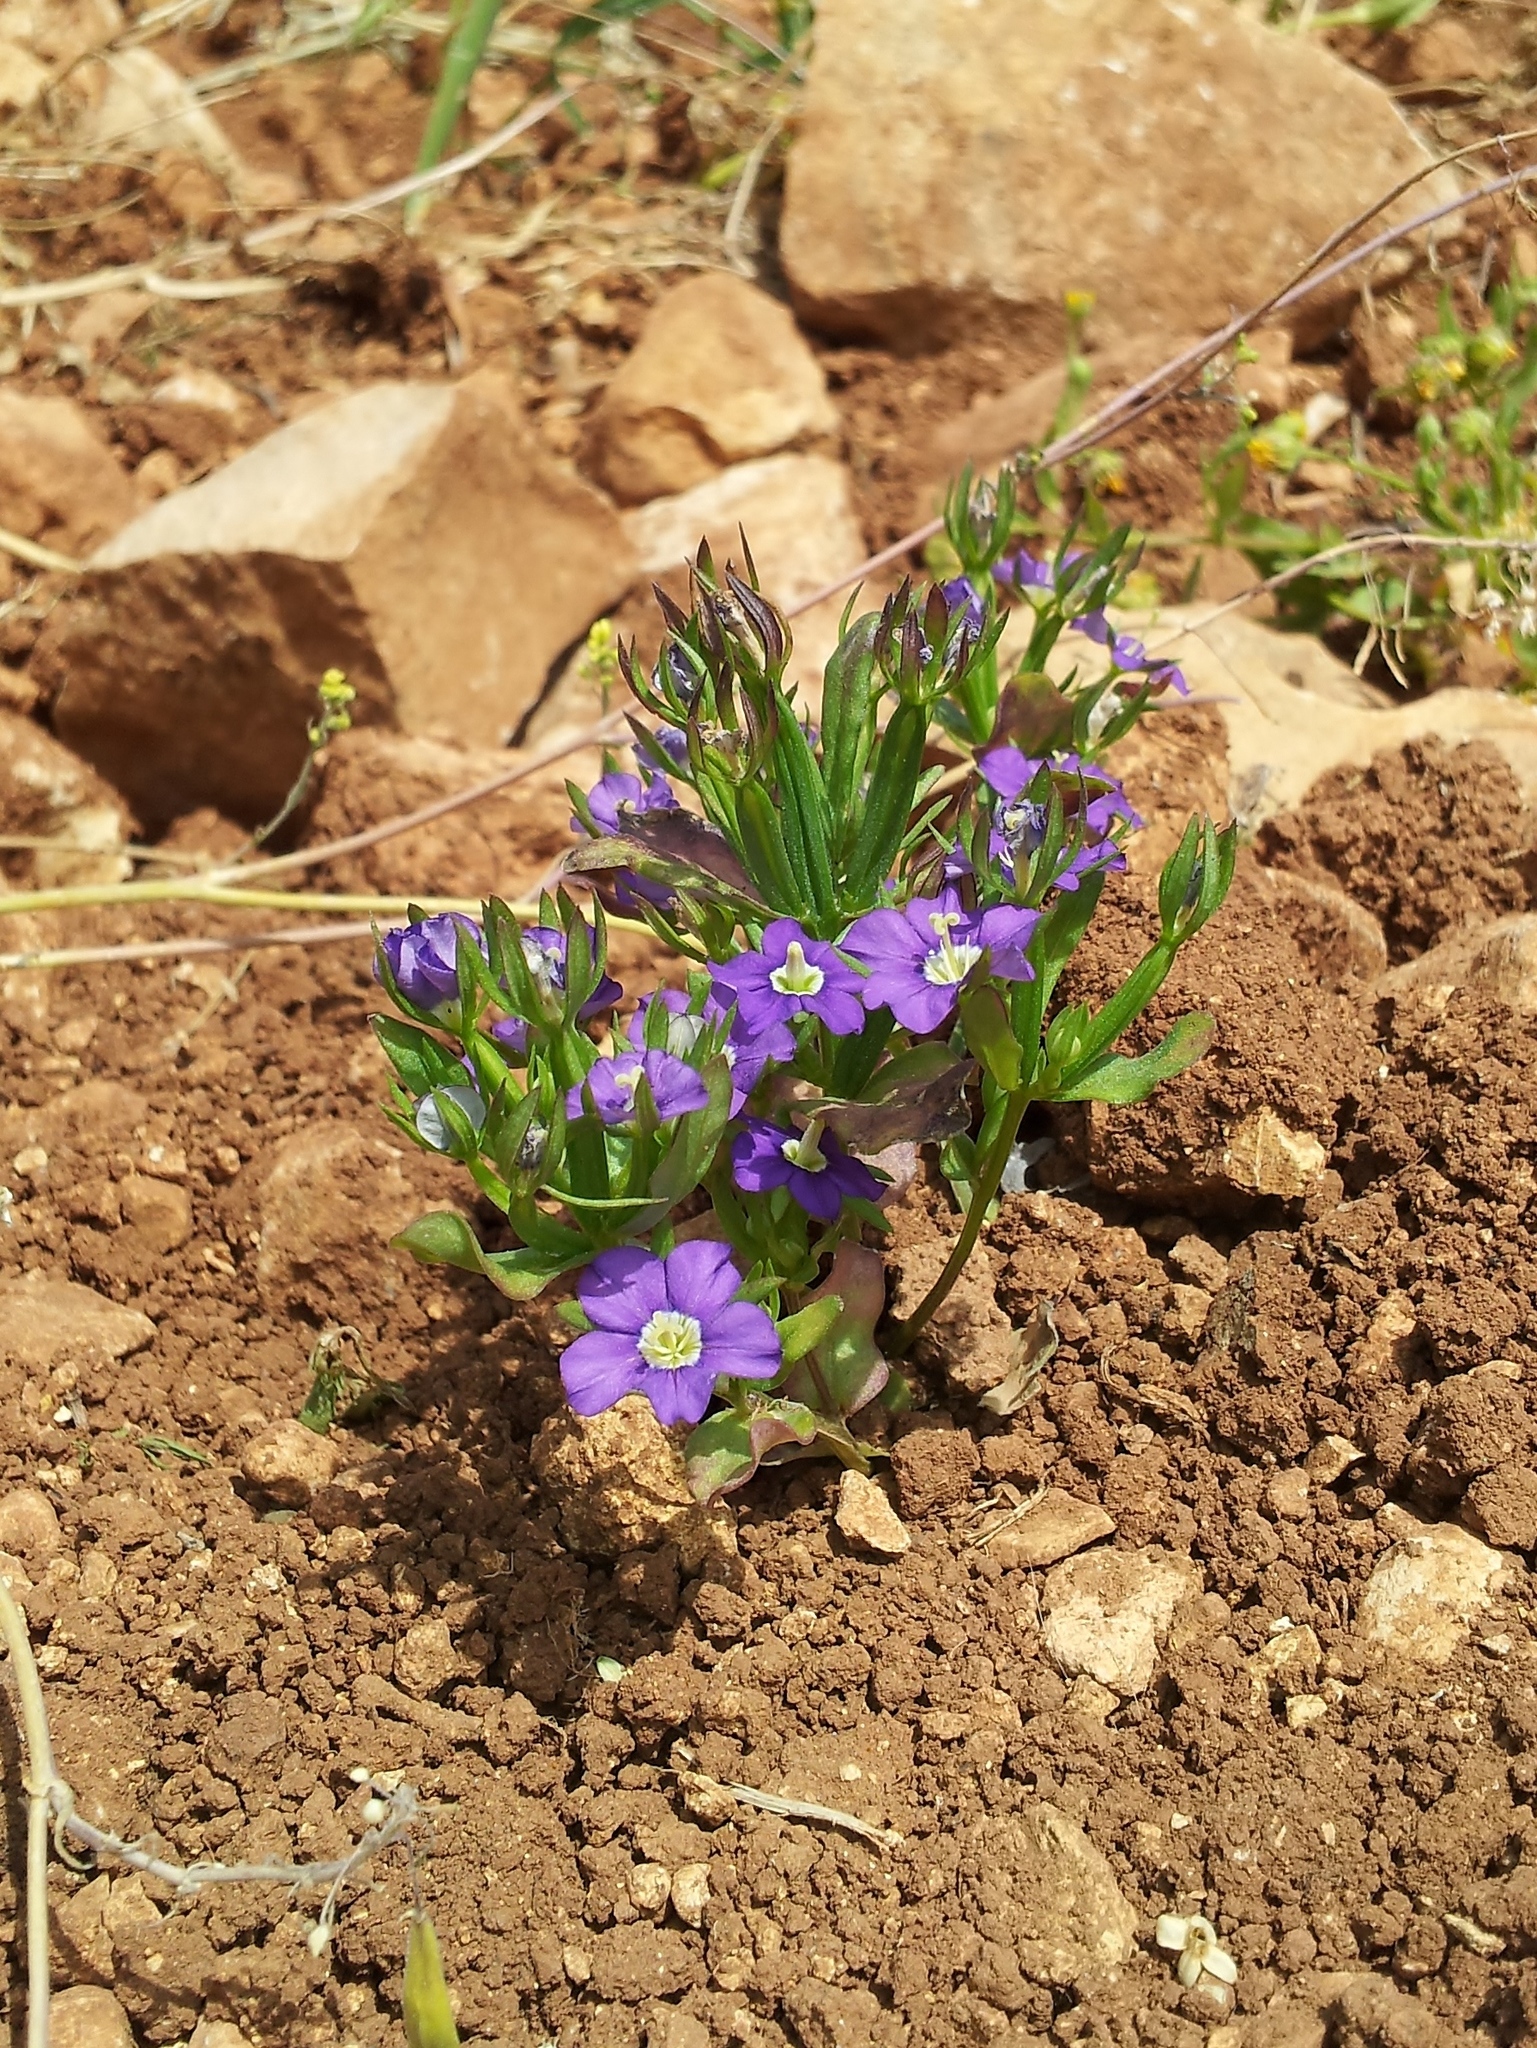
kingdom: Plantae
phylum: Tracheophyta
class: Magnoliopsida
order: Asterales
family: Campanulaceae
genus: Legousia
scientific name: Legousia speculum-veneris
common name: Large venus's-looking-glass
